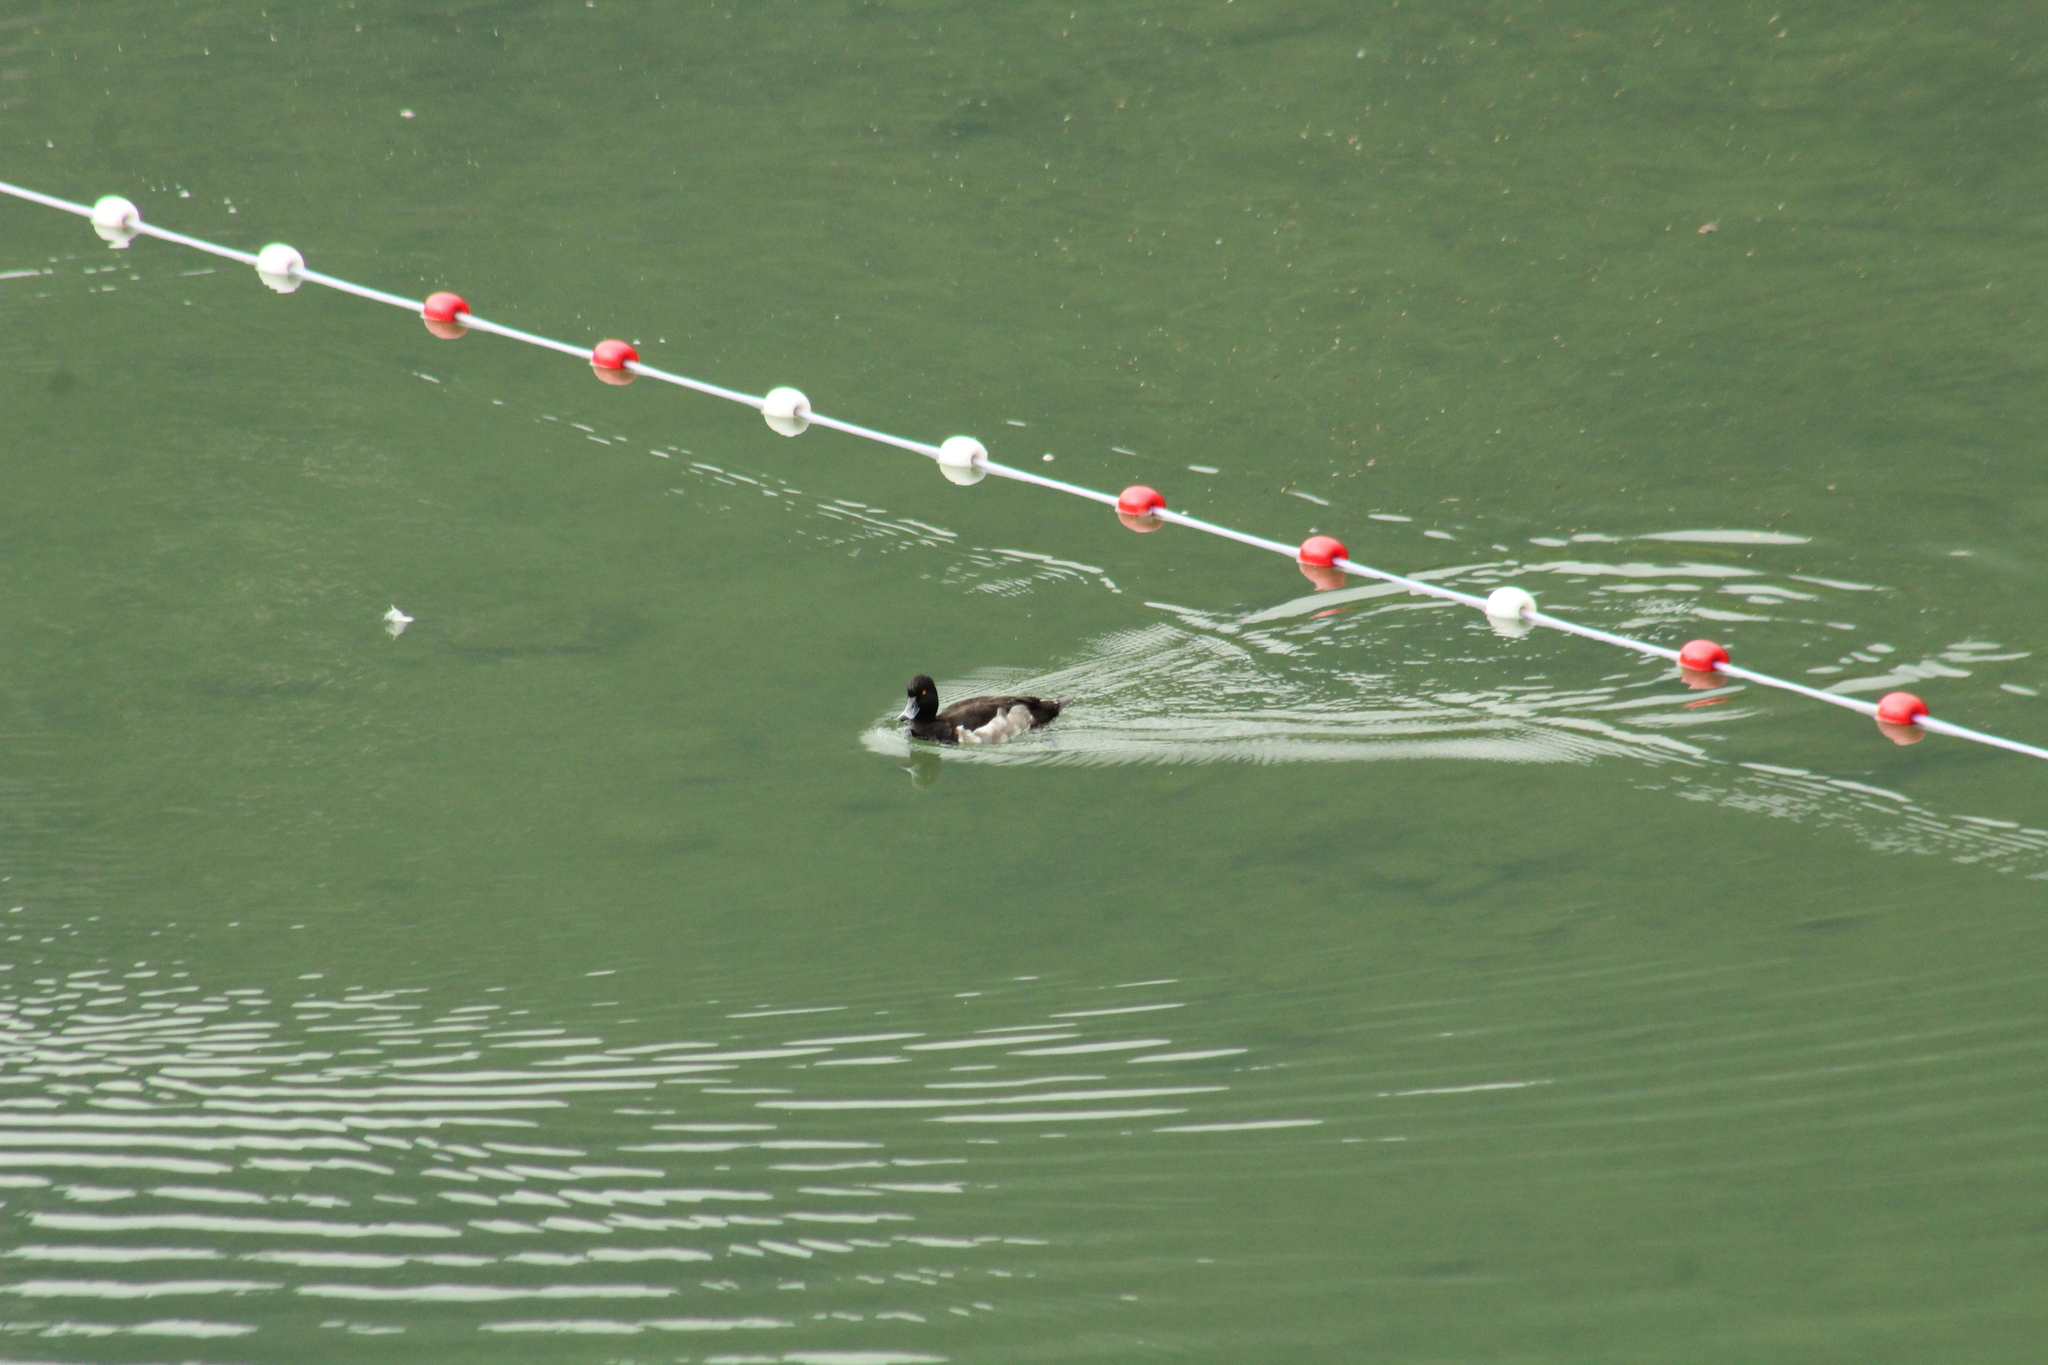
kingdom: Animalia
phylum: Chordata
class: Aves
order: Anseriformes
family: Anatidae
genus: Aythya
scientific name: Aythya fuligula
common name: Tufted duck
